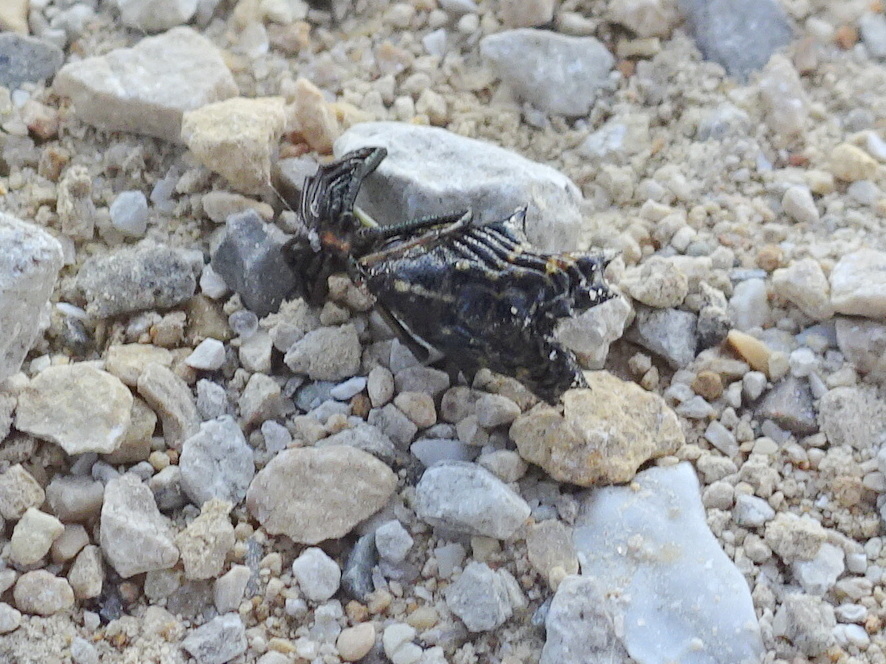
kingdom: Animalia
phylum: Arthropoda
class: Arachnida
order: Araneae
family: Araneidae
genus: Micrathena
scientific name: Micrathena gracilis
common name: Orb weavers
